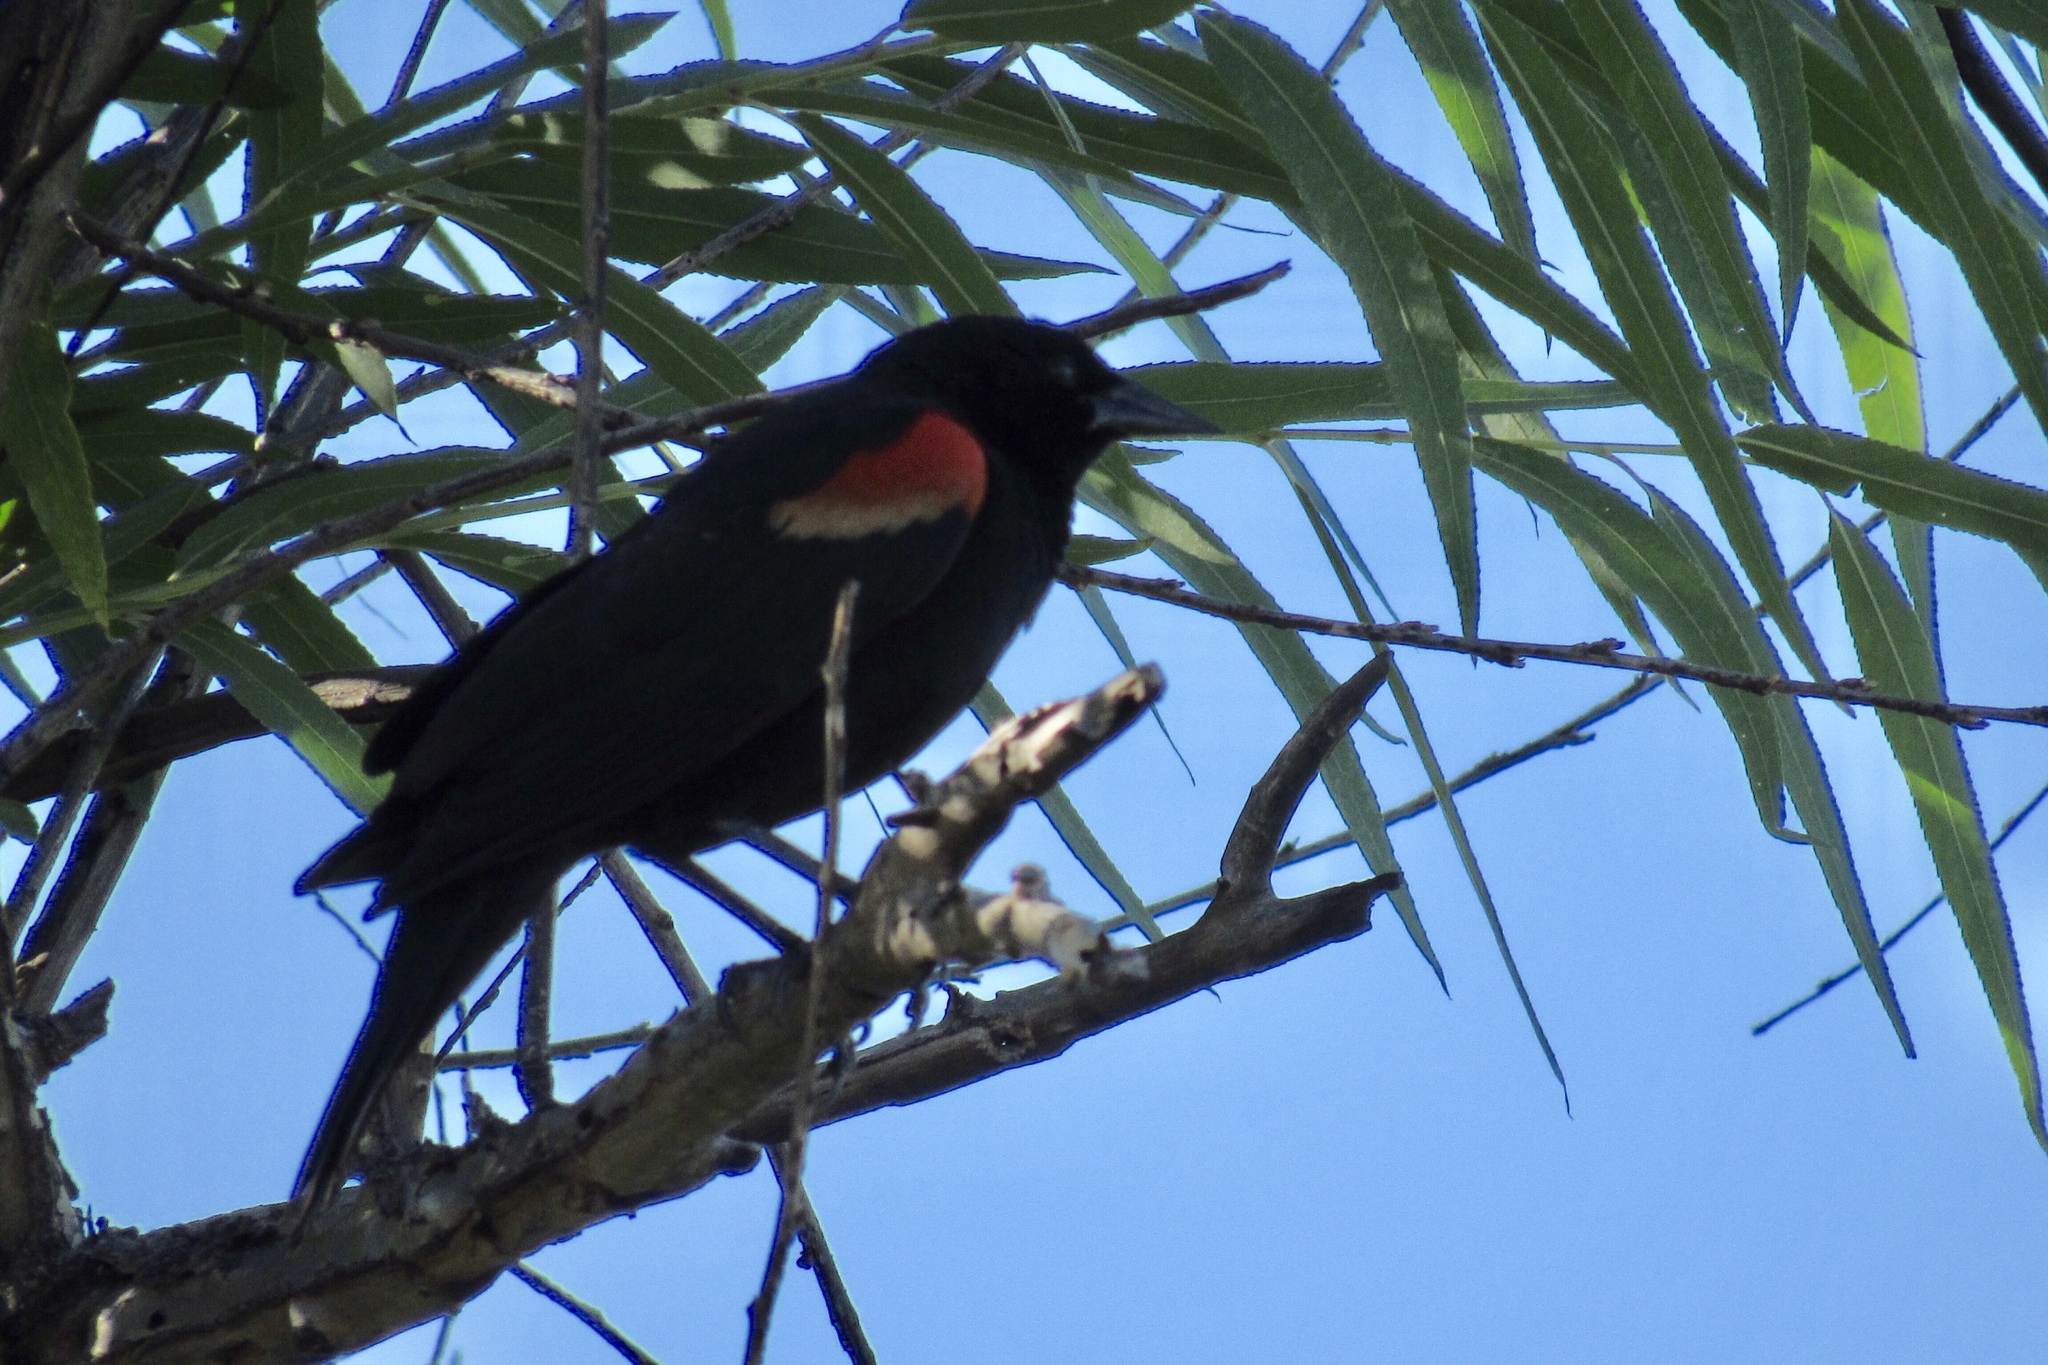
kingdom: Animalia
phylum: Chordata
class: Aves
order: Passeriformes
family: Icteridae
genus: Agelaius
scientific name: Agelaius phoeniceus
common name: Red-winged blackbird
